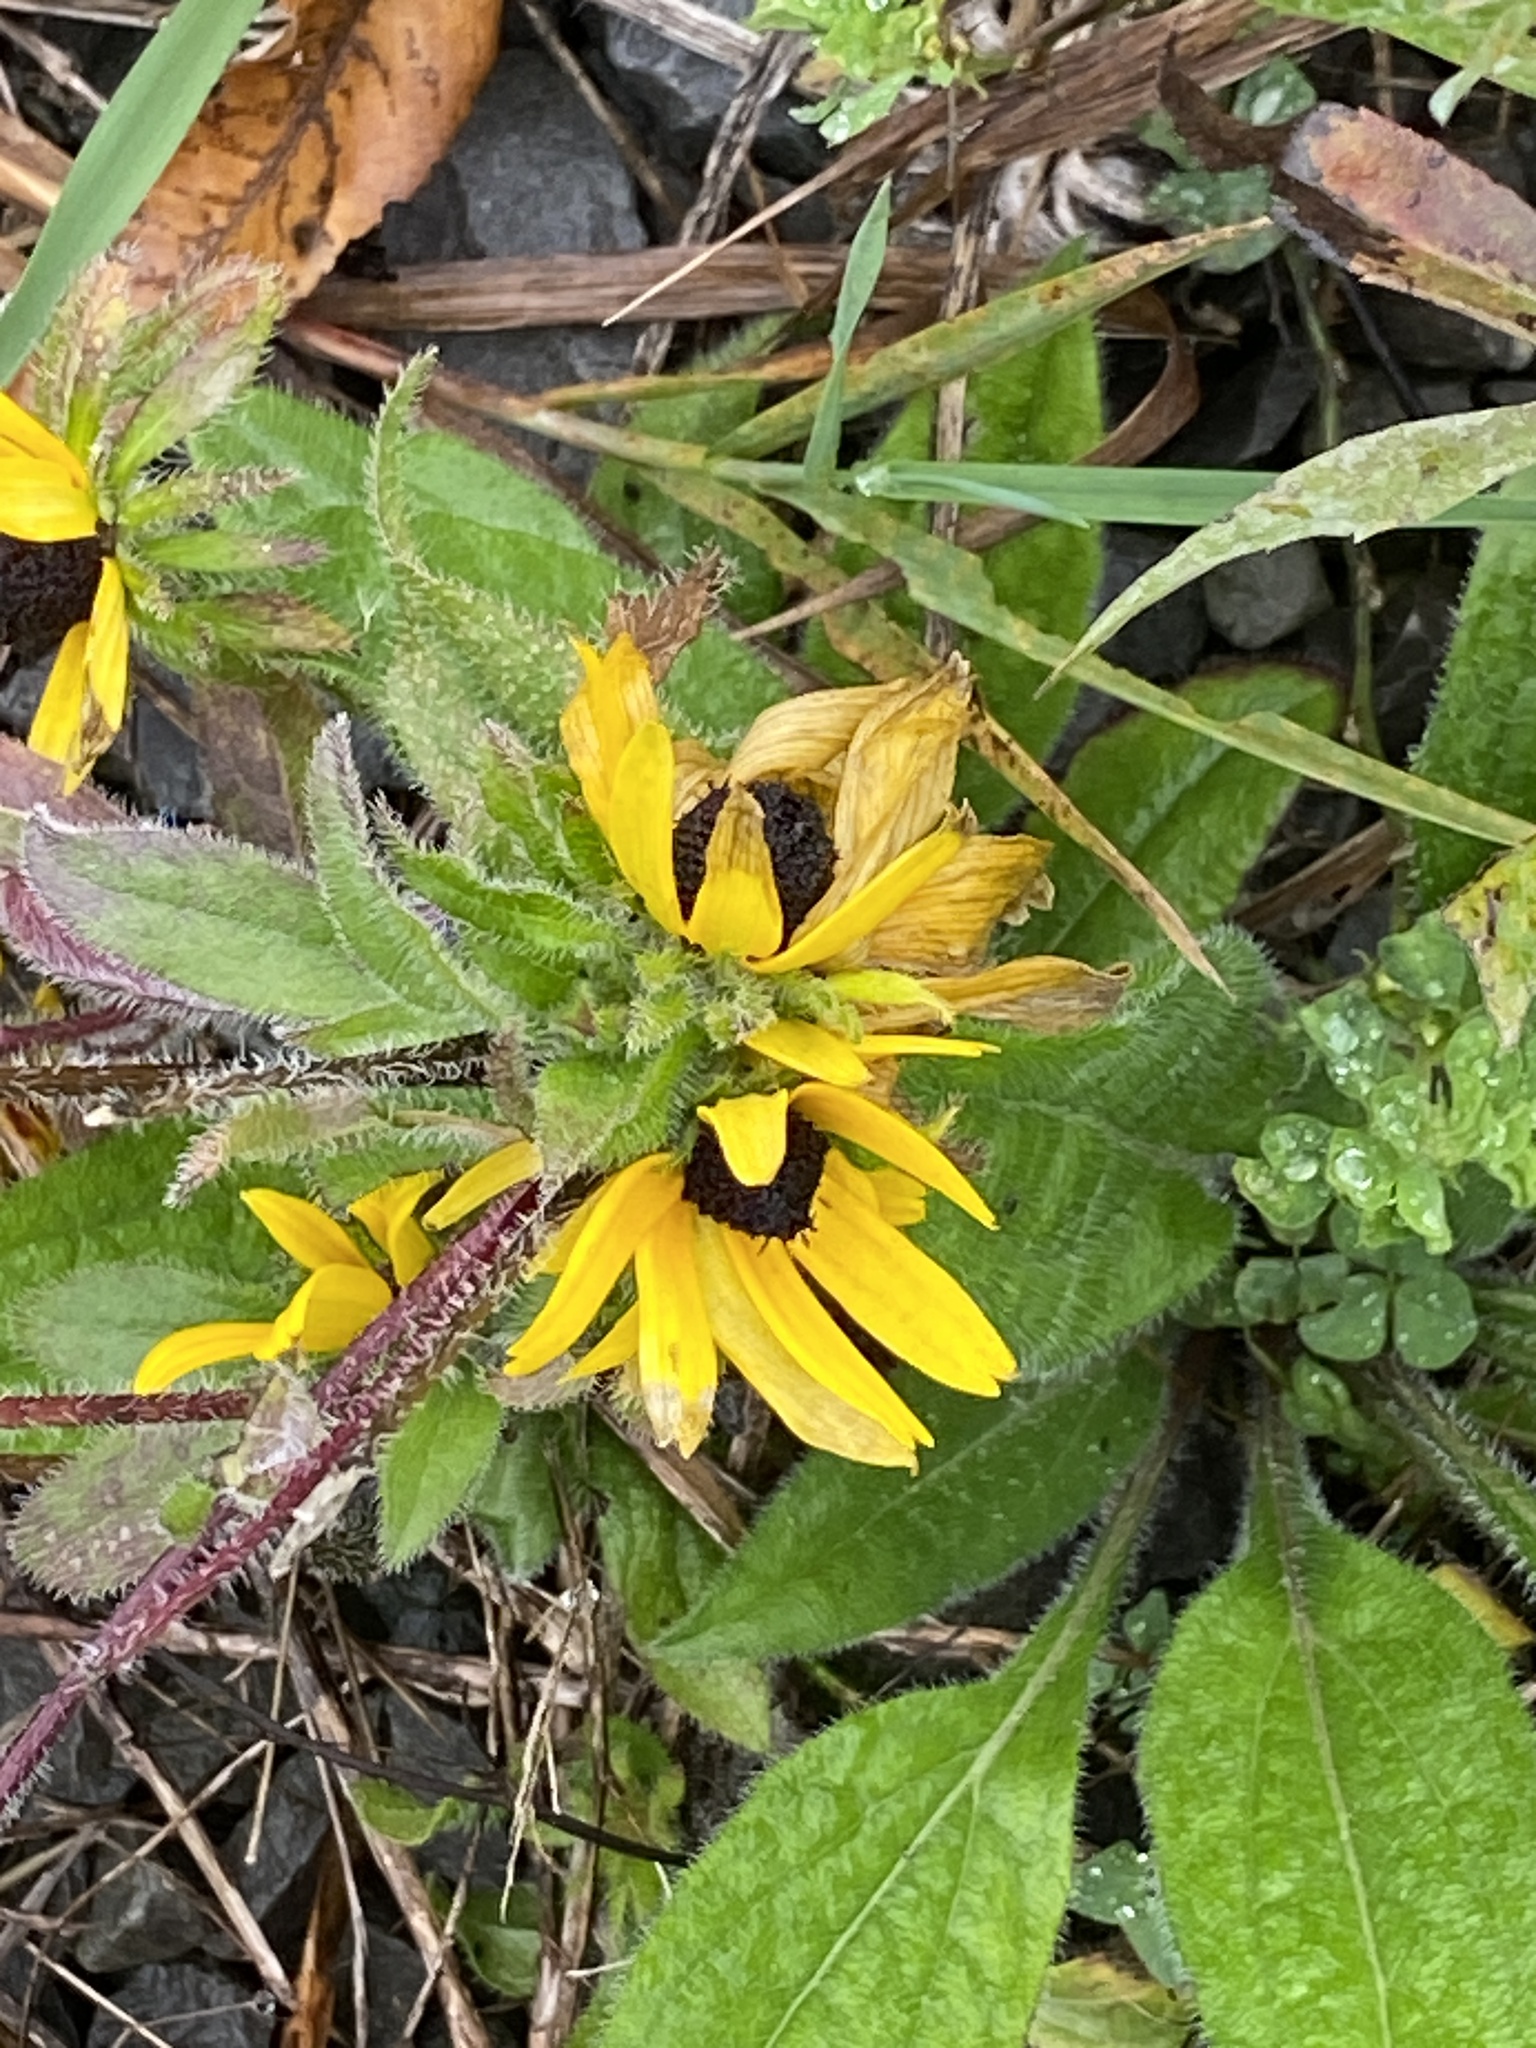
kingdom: Plantae
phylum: Tracheophyta
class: Magnoliopsida
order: Asterales
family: Asteraceae
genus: Rudbeckia
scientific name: Rudbeckia hirta
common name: Black-eyed-susan
